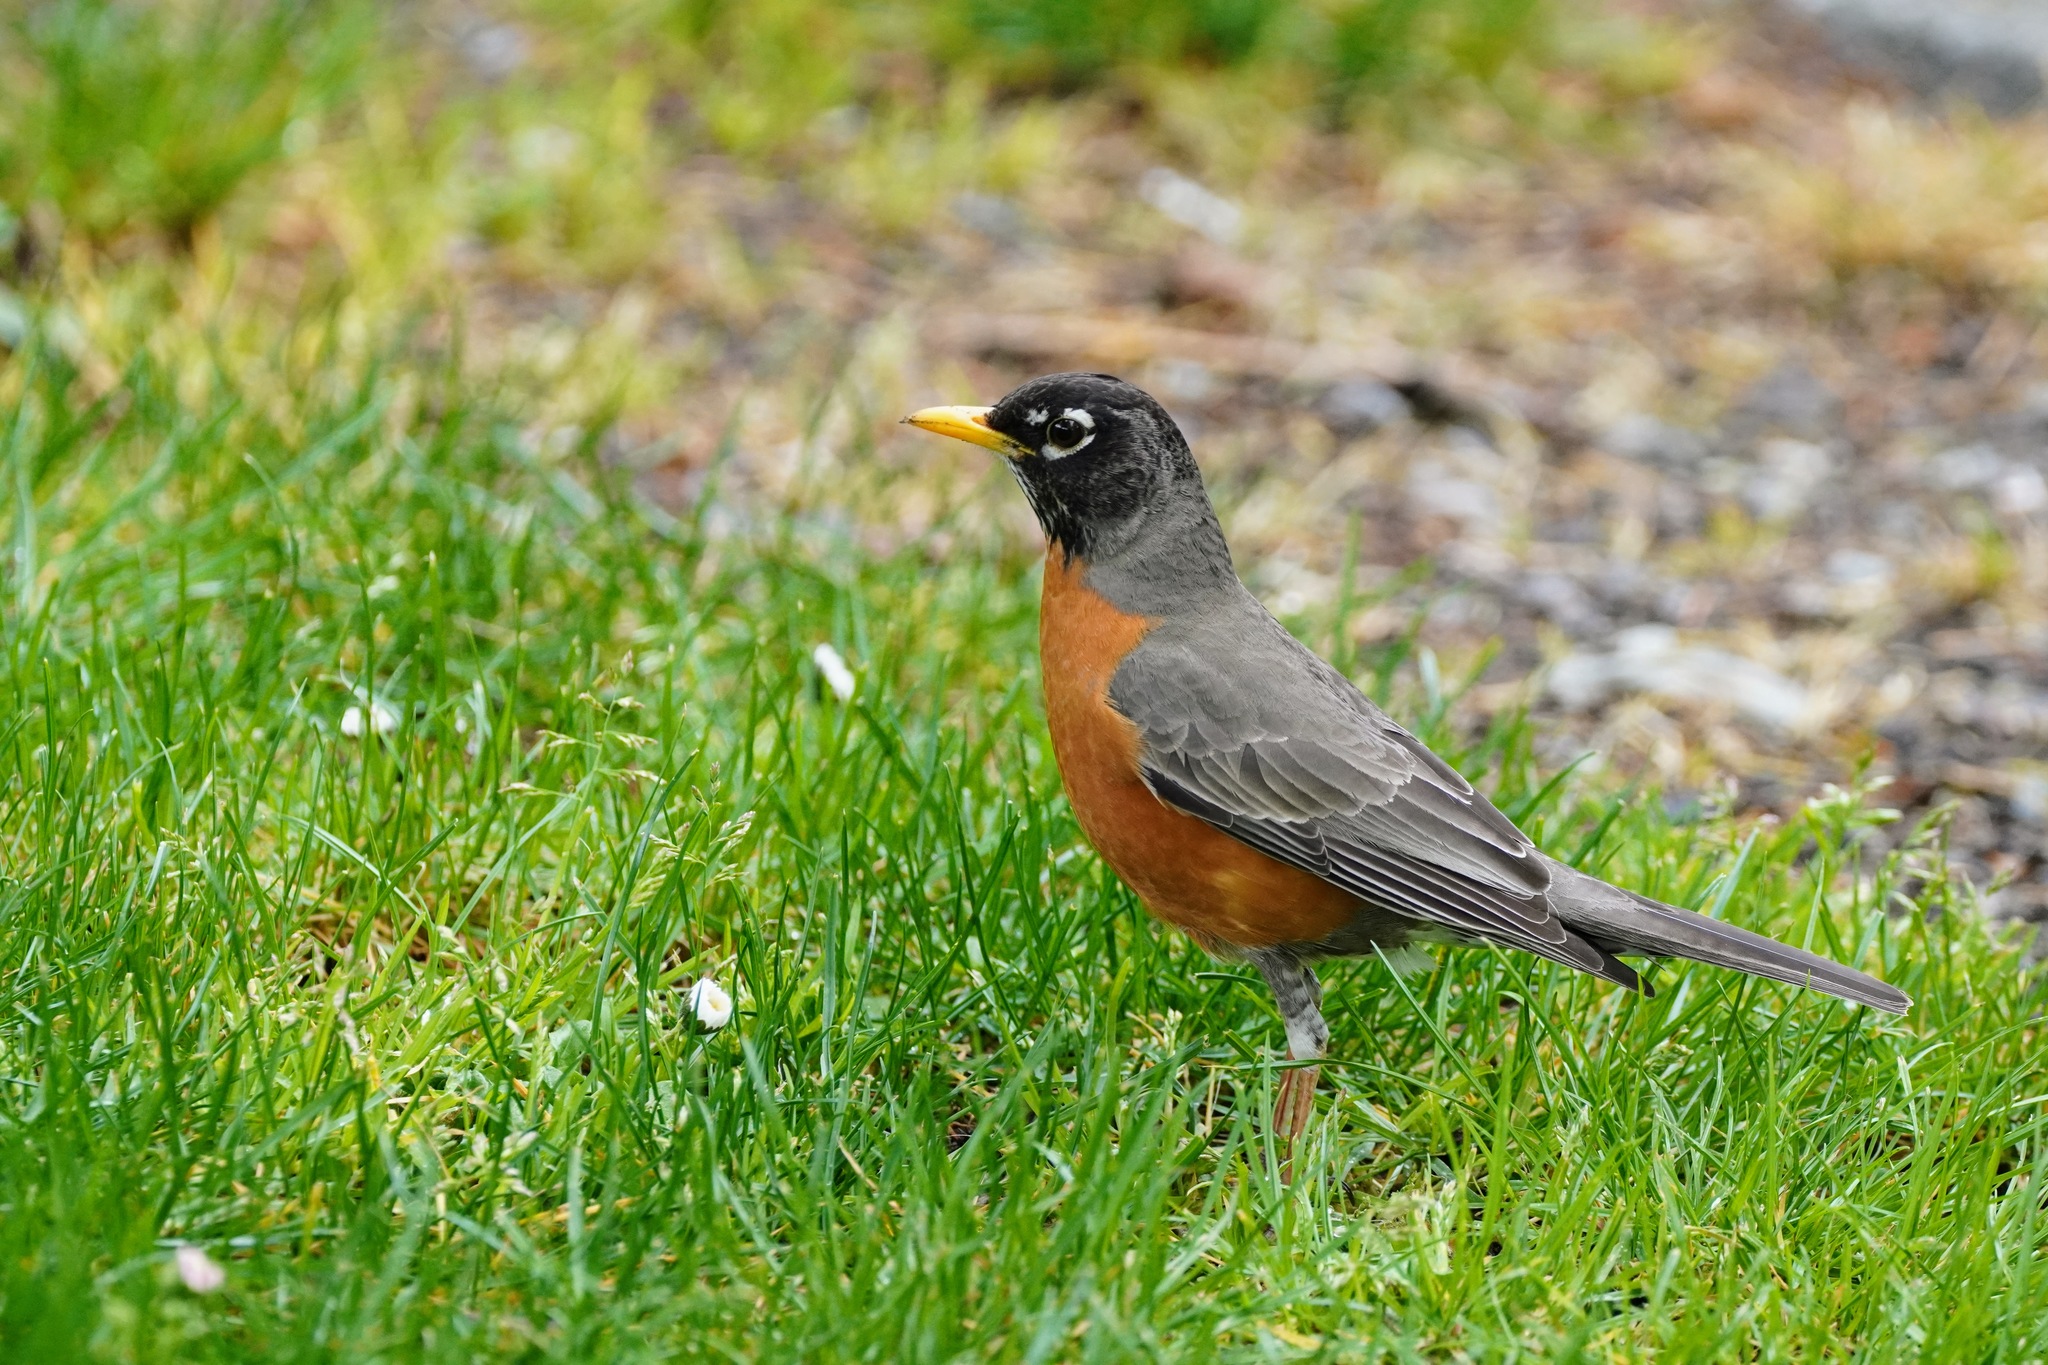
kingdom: Animalia
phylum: Chordata
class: Aves
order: Passeriformes
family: Turdidae
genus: Turdus
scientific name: Turdus migratorius
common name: American robin
